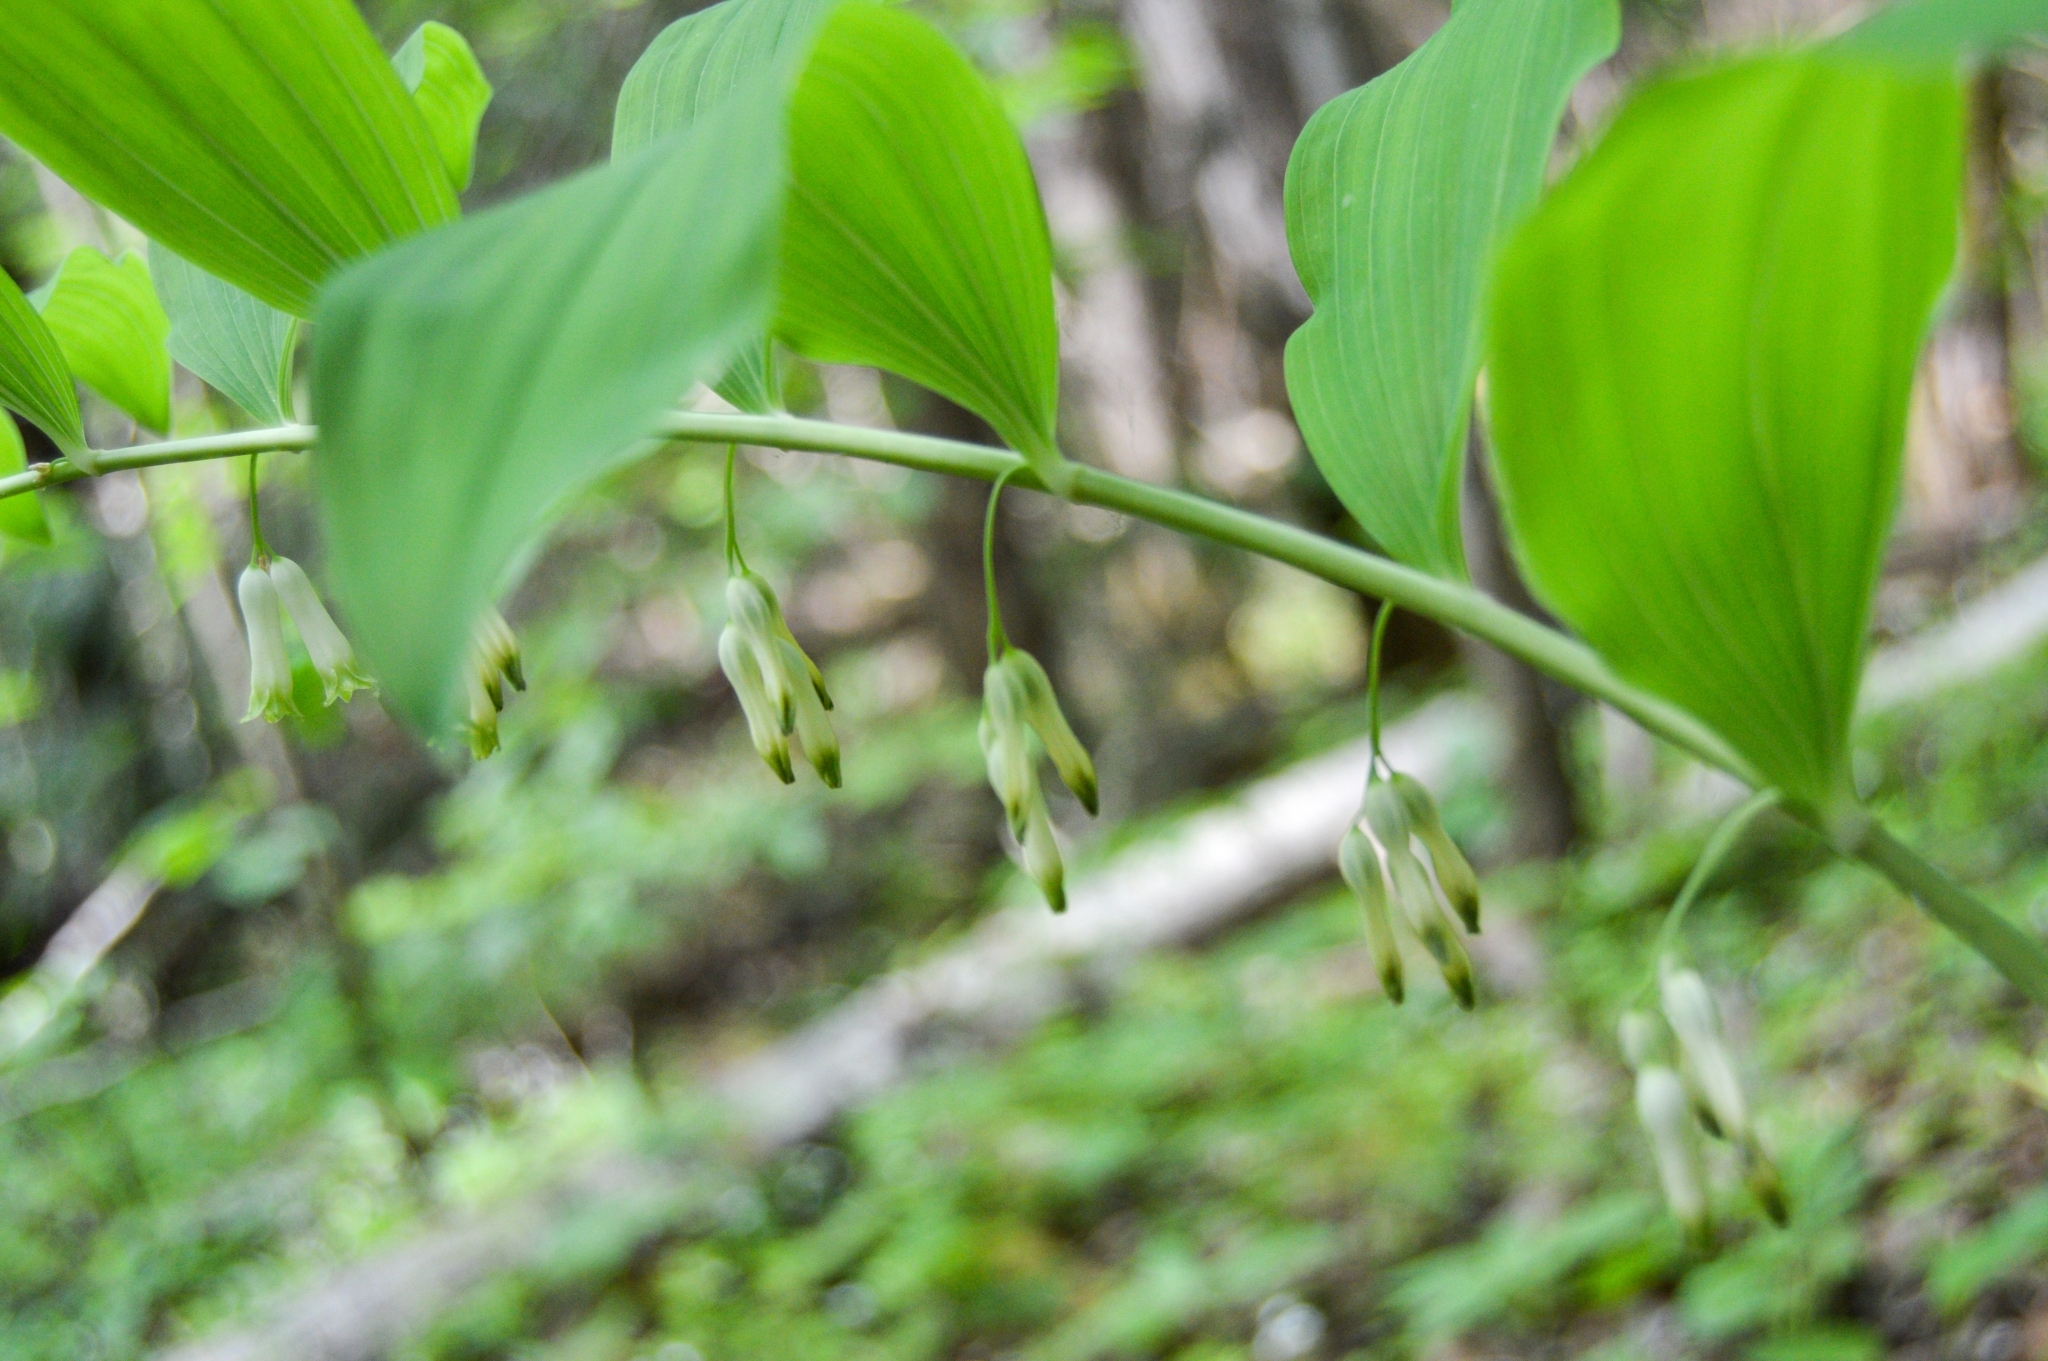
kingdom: Plantae
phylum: Tracheophyta
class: Liliopsida
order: Asparagales
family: Asparagaceae
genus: Polygonatum
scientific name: Polygonatum multiflorum
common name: Solomon's-seal
